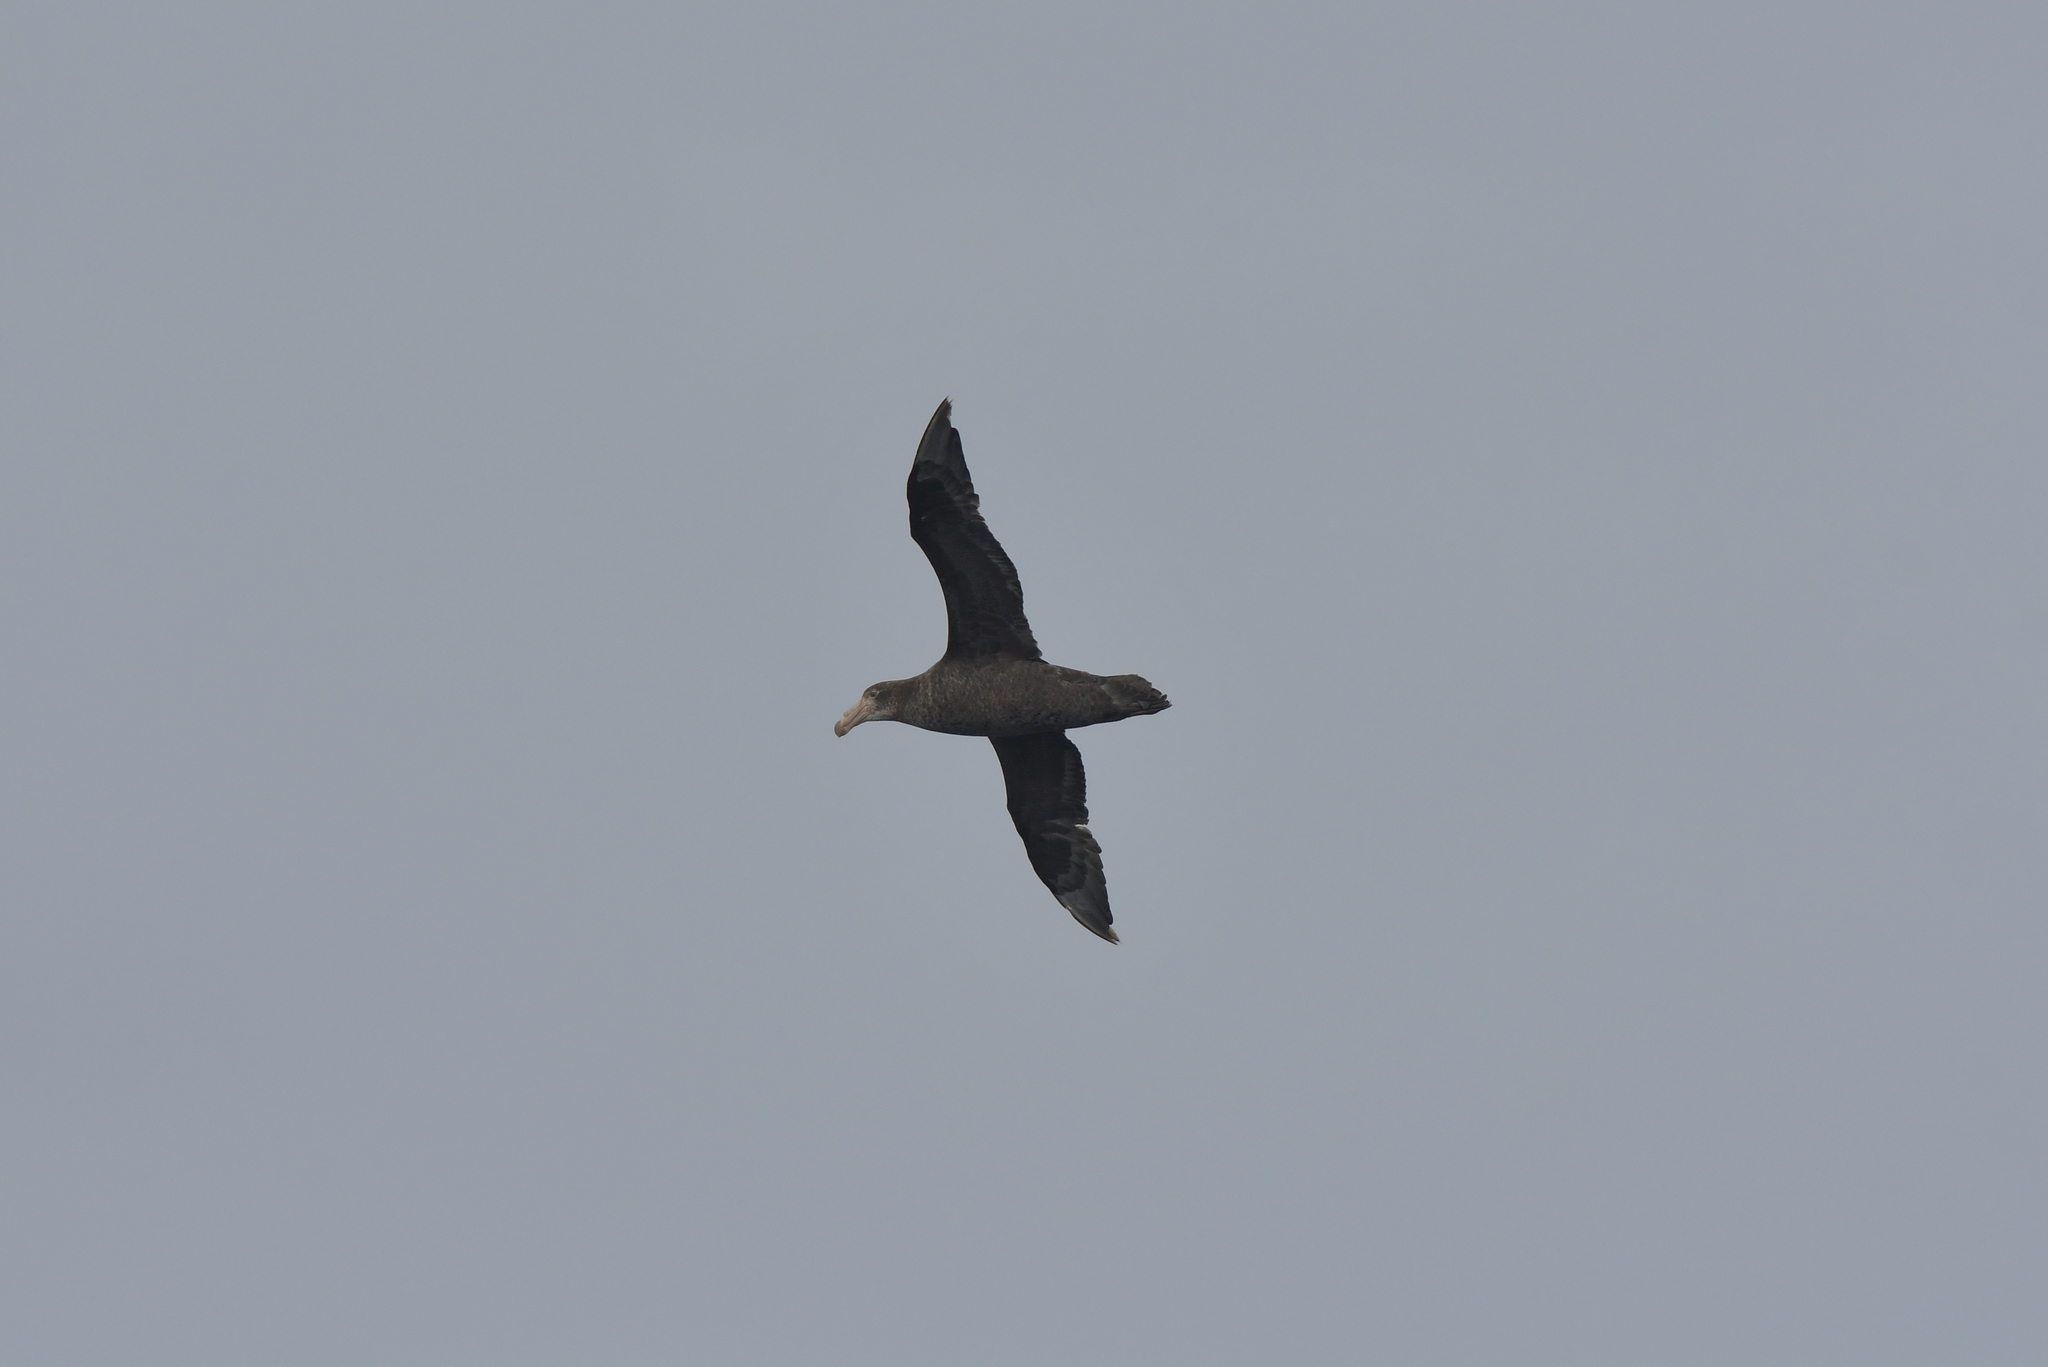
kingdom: Animalia
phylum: Chordata
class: Aves
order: Procellariiformes
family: Procellariidae
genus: Macronectes
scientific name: Macronectes halli
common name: Northern giant petrel
